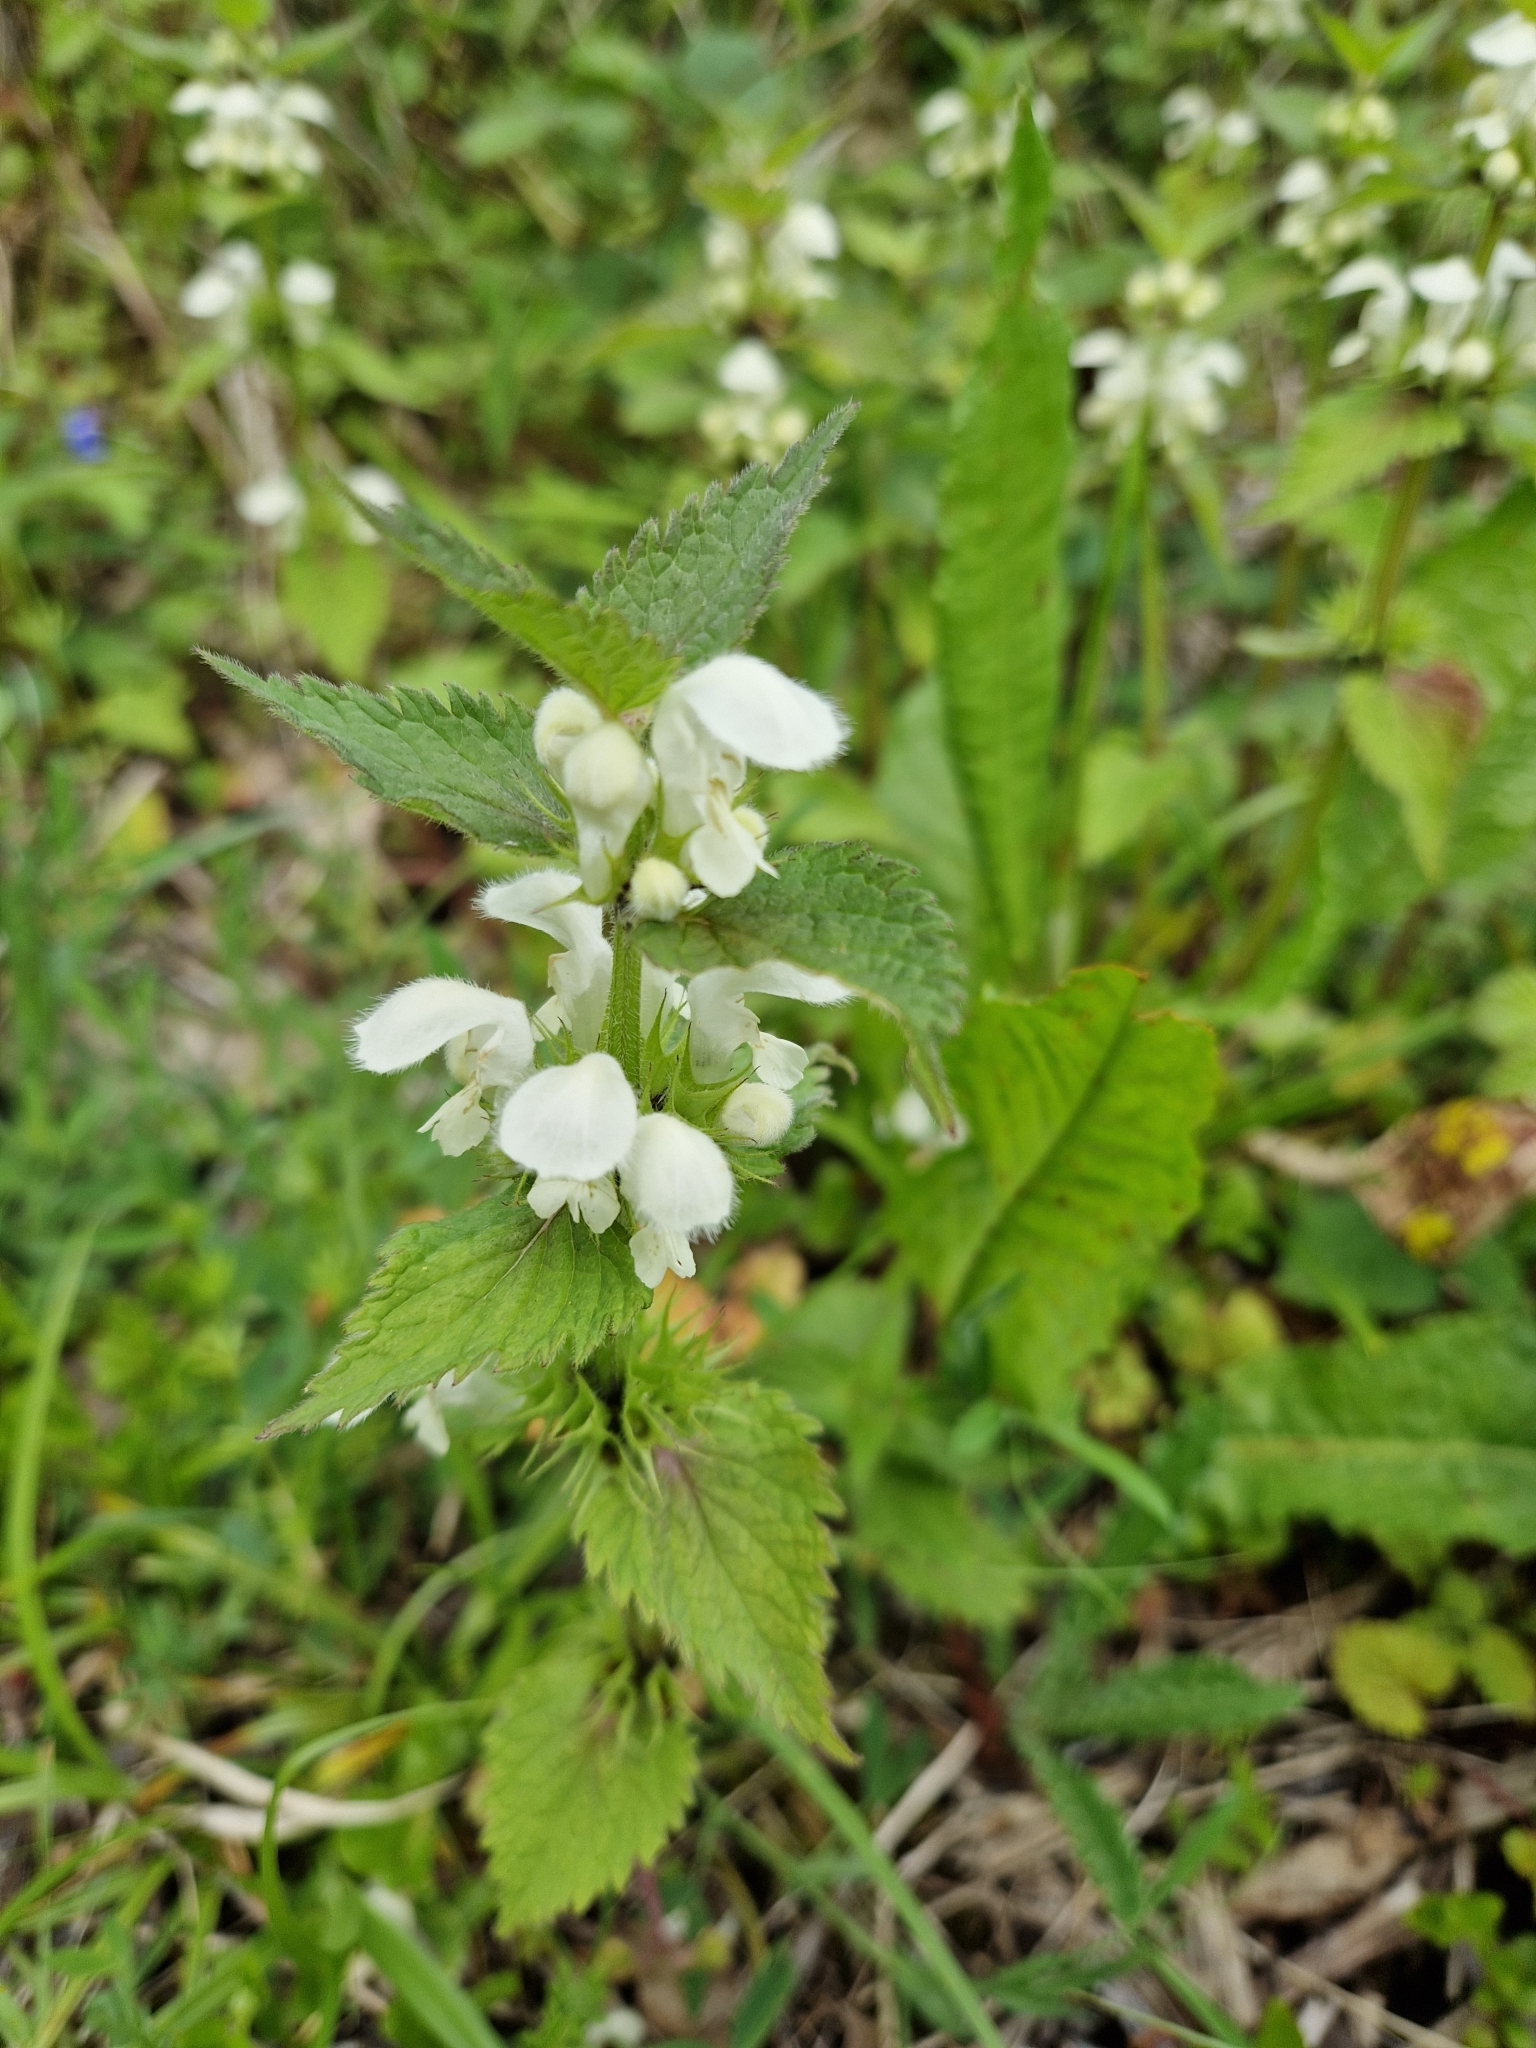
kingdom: Plantae
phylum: Tracheophyta
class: Magnoliopsida
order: Lamiales
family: Lamiaceae
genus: Lamium
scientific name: Lamium album
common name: White dead-nettle
